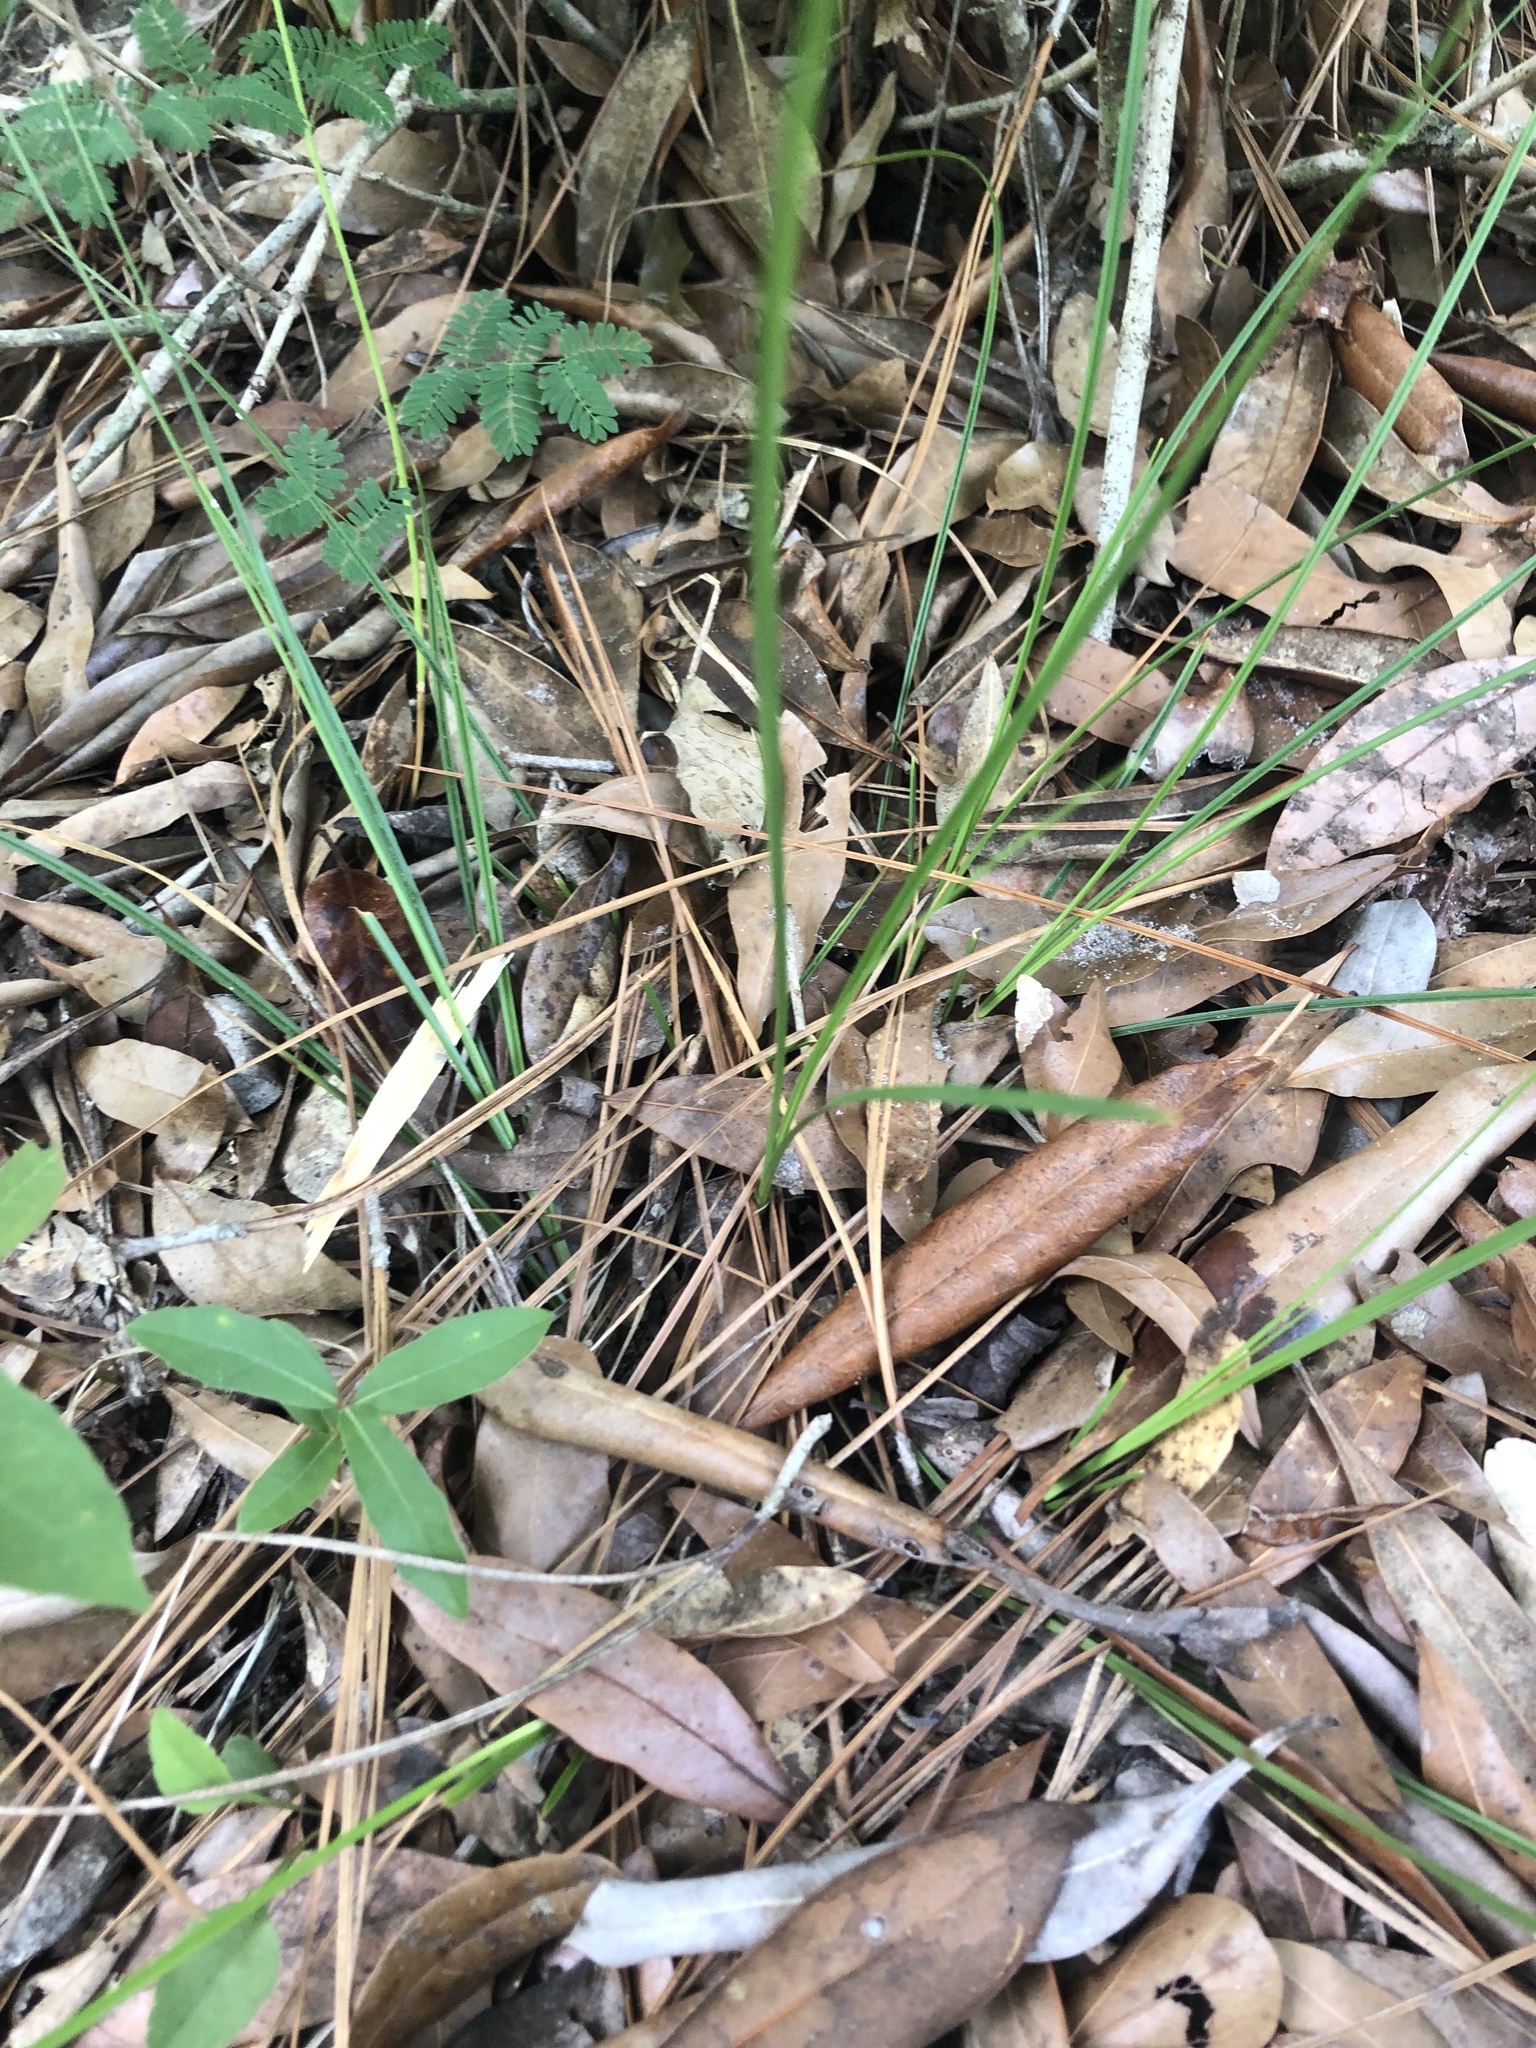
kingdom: Plantae
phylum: Tracheophyta
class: Liliopsida
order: Poales
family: Cyperaceae
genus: Carex
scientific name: Carex tenax
